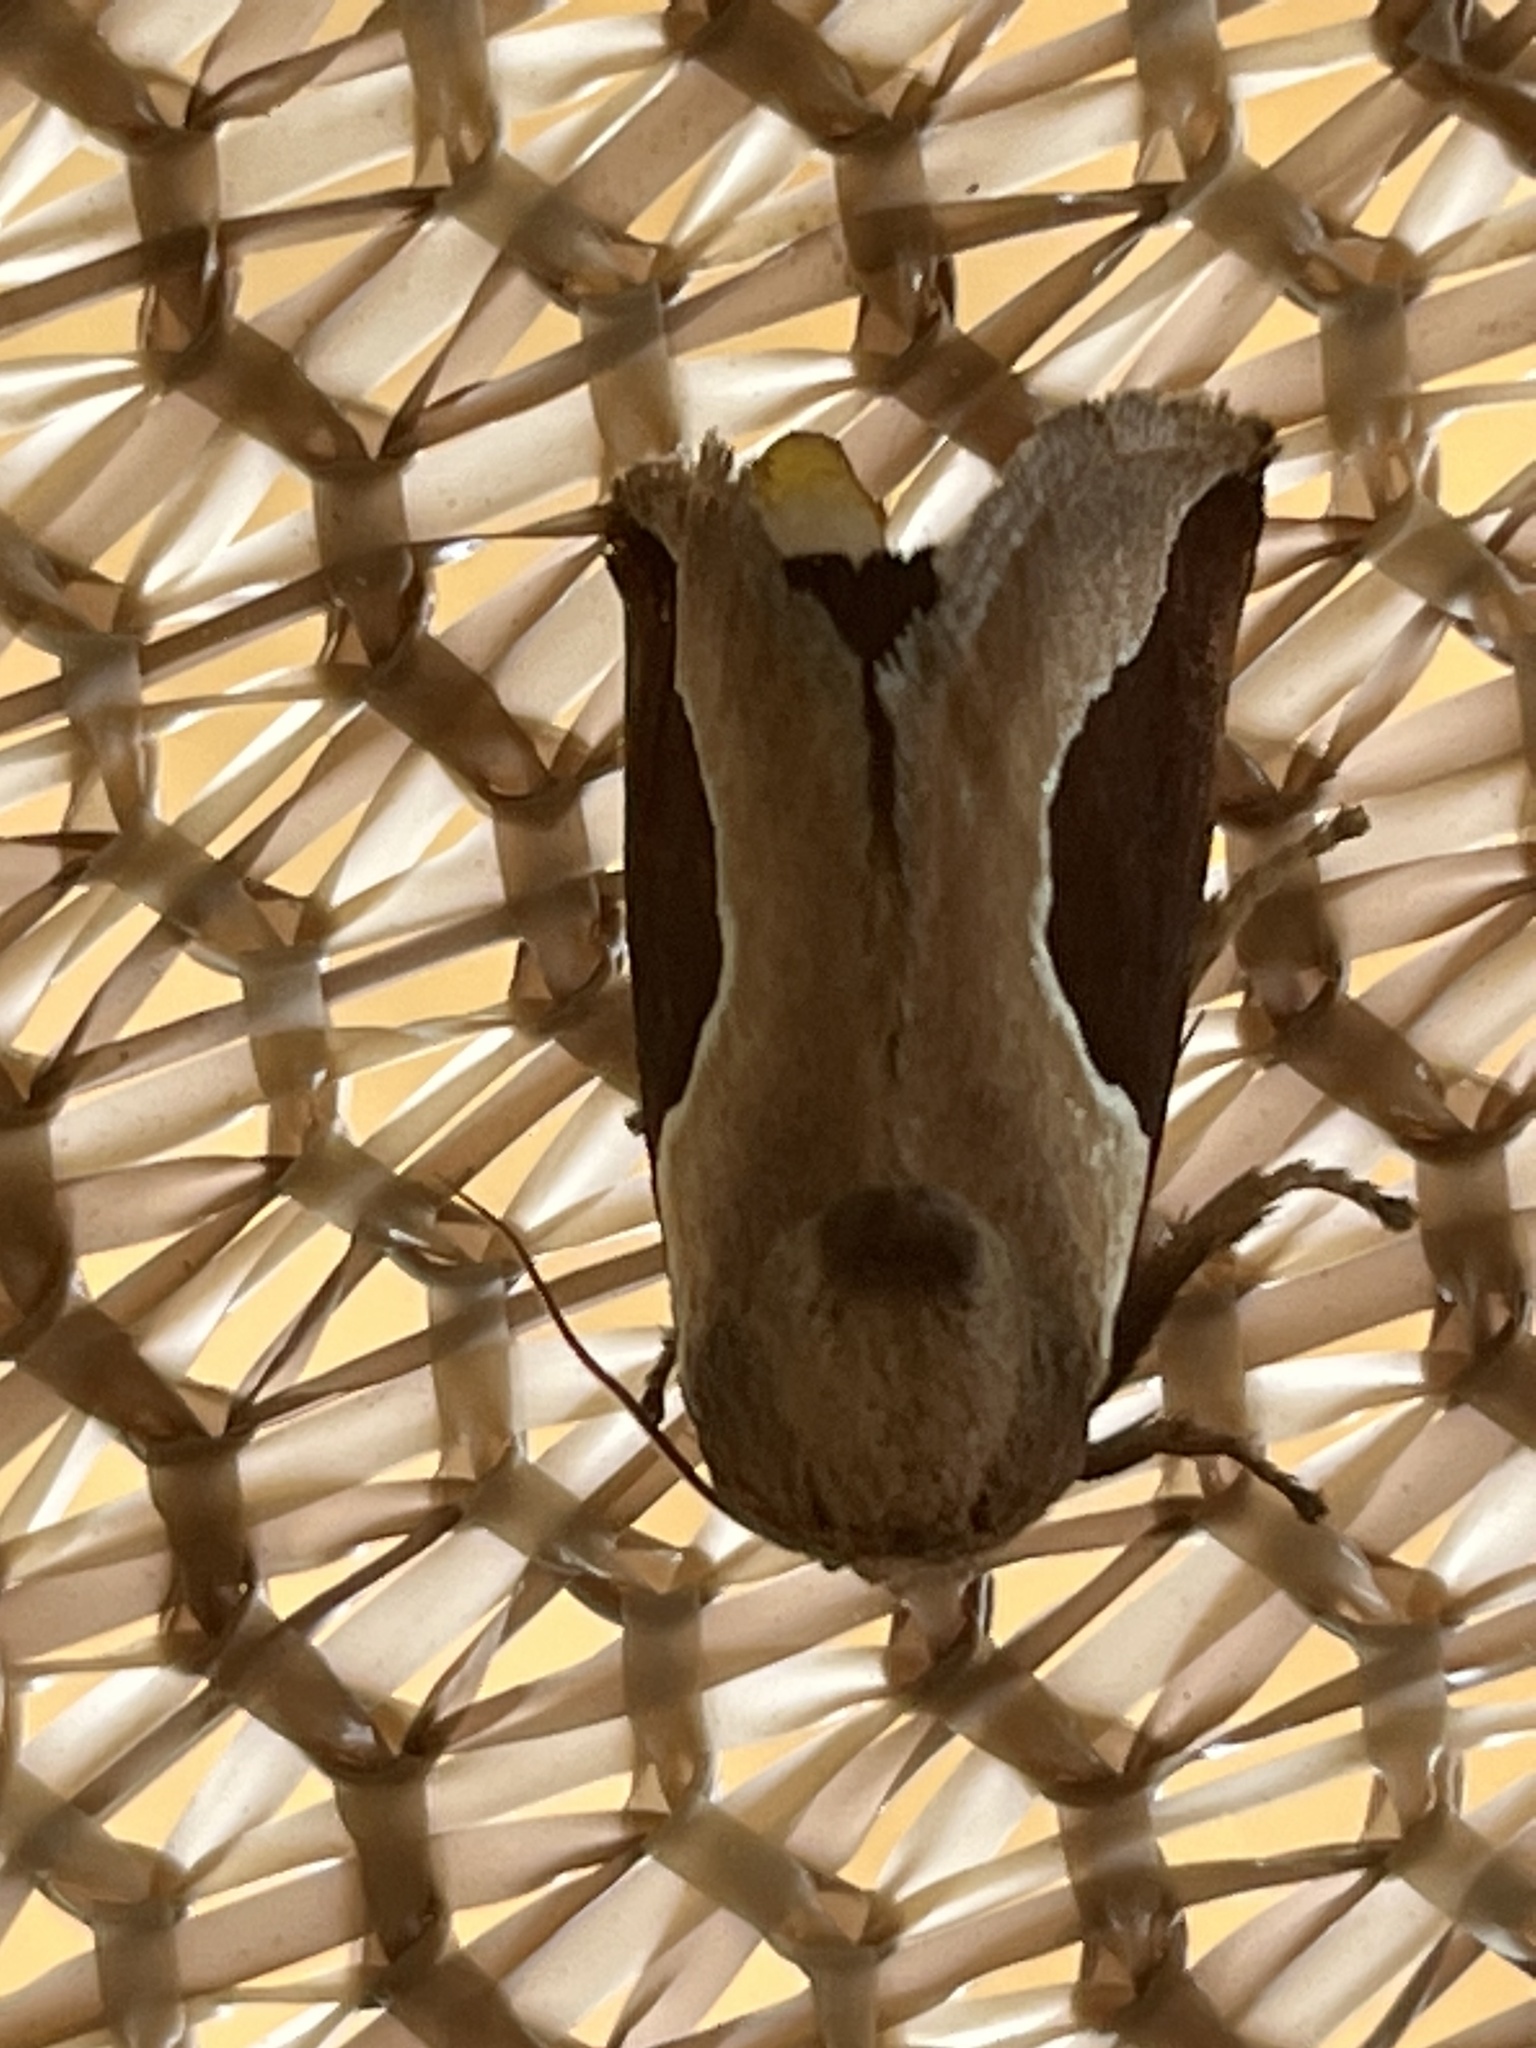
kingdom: Animalia
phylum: Arthropoda
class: Insecta
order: Lepidoptera
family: Limacodidae
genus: Prolimacodes
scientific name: Prolimacodes badia
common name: Skiff moth
